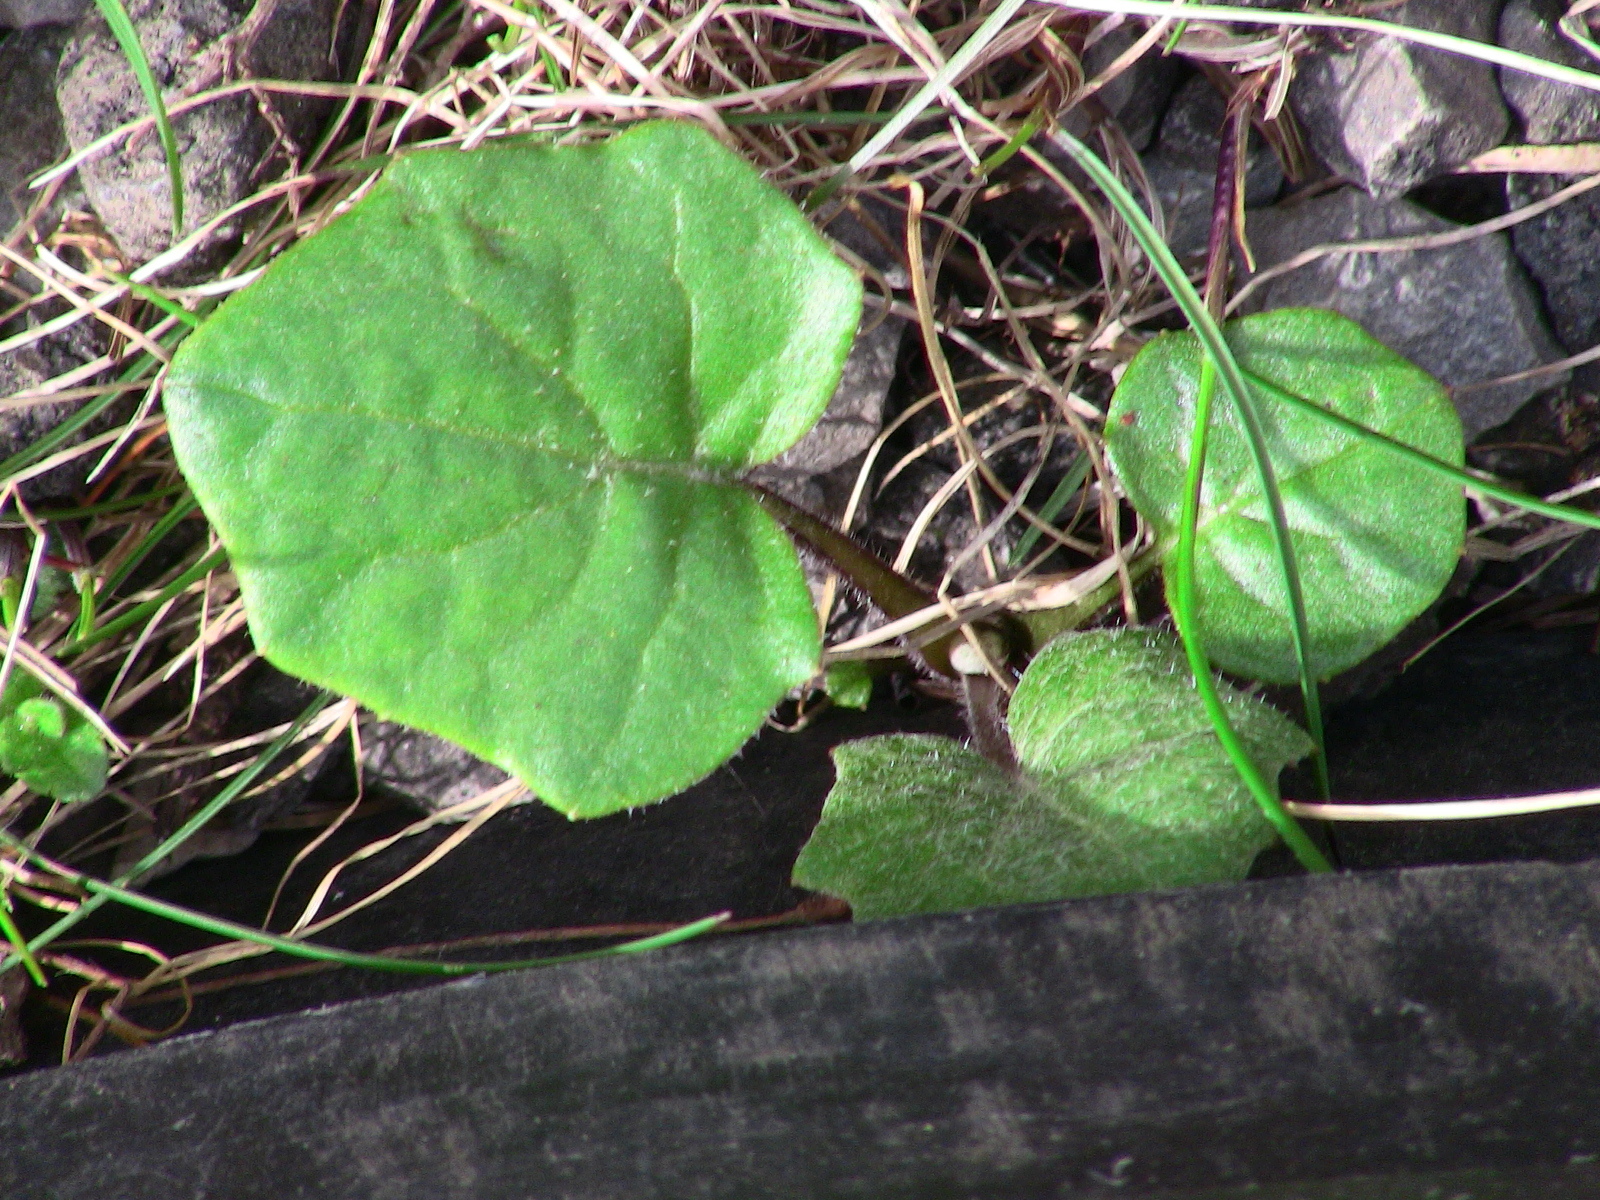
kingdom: Plantae
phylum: Tracheophyta
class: Magnoliopsida
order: Asterales
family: Asteraceae
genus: Tussilago
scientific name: Tussilago farfara
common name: Coltsfoot
